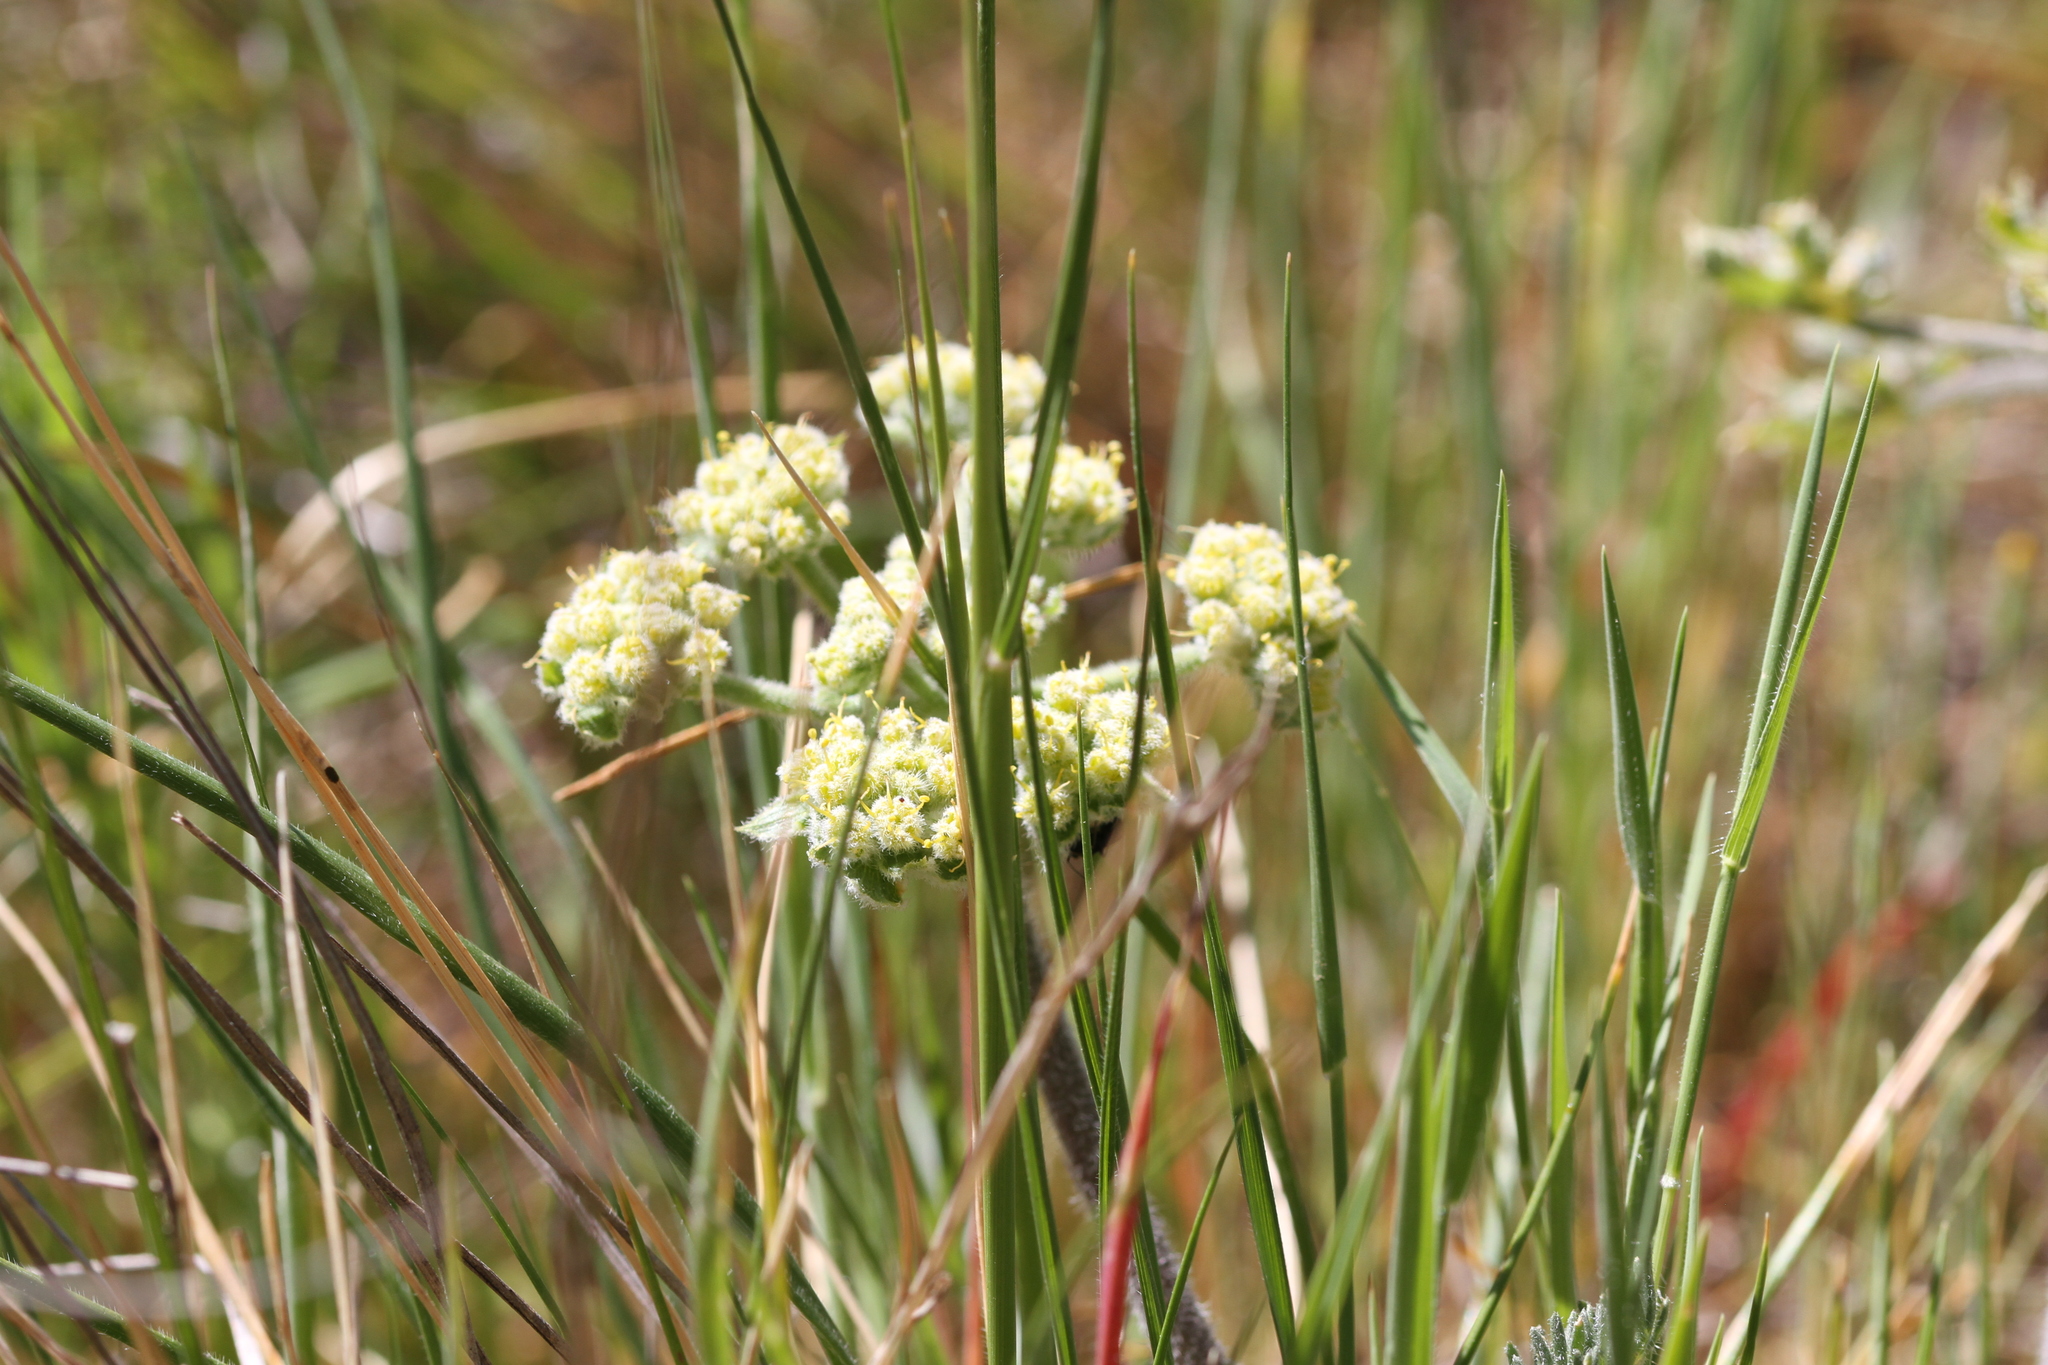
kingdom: Plantae
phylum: Tracheophyta
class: Magnoliopsida
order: Apiales
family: Apiaceae
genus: Lomatium
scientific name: Lomatium dasycarpum
